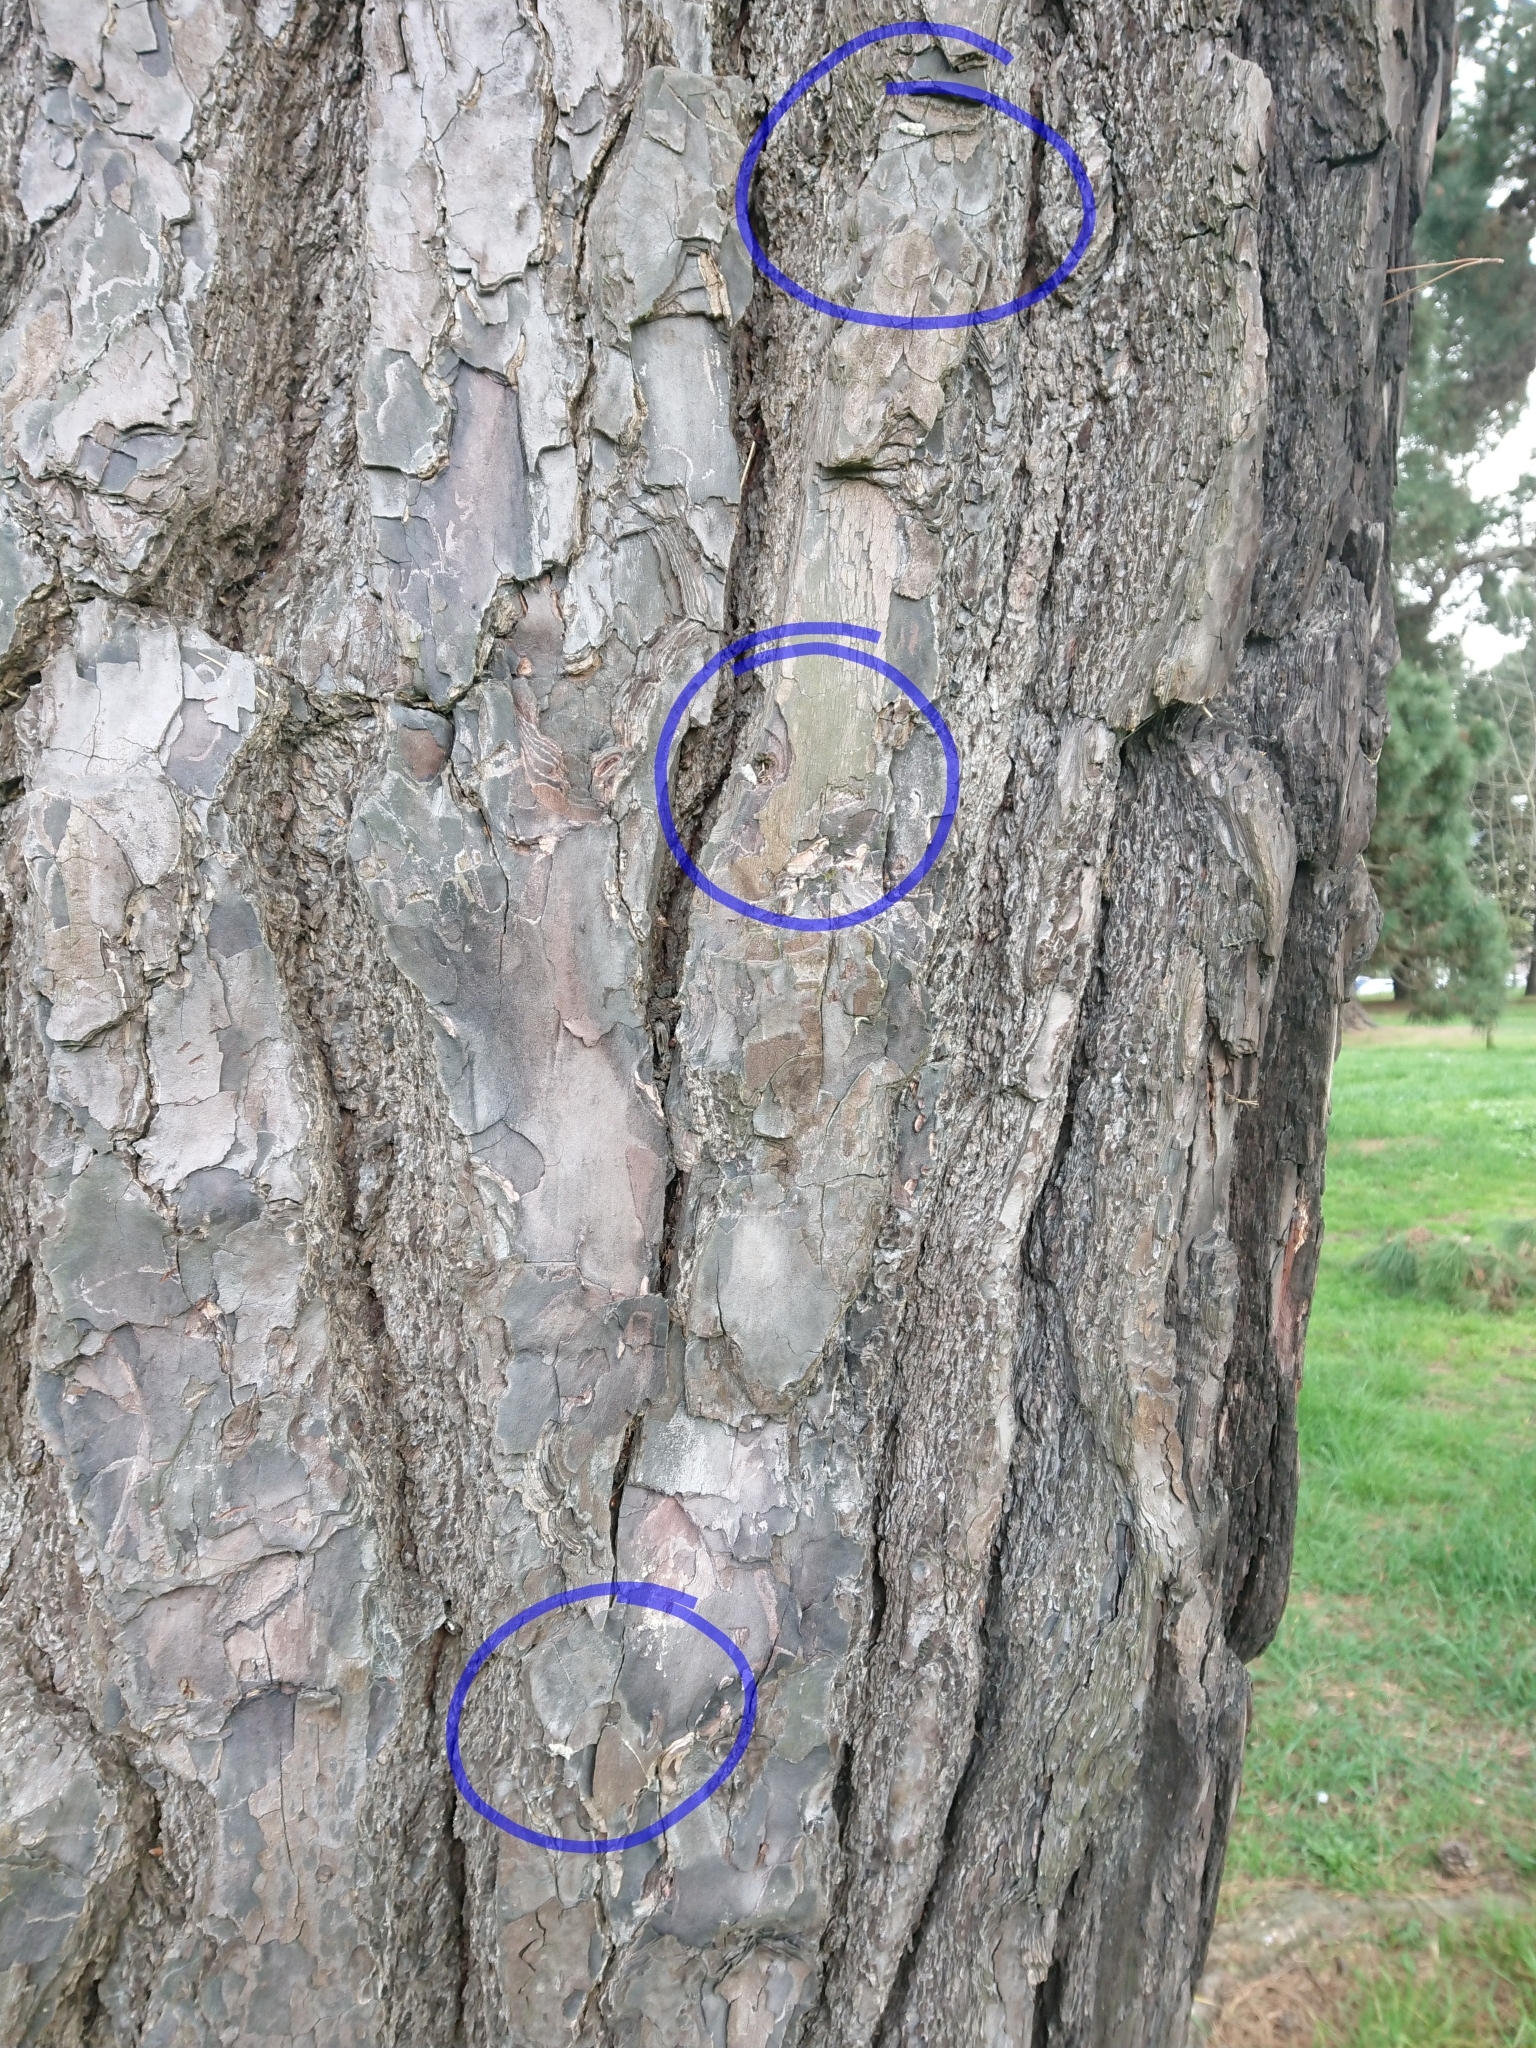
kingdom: Animalia
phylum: Arthropoda
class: Insecta
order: Lepidoptera
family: Oecophoridae
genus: Izatha
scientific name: Izatha convulsella
